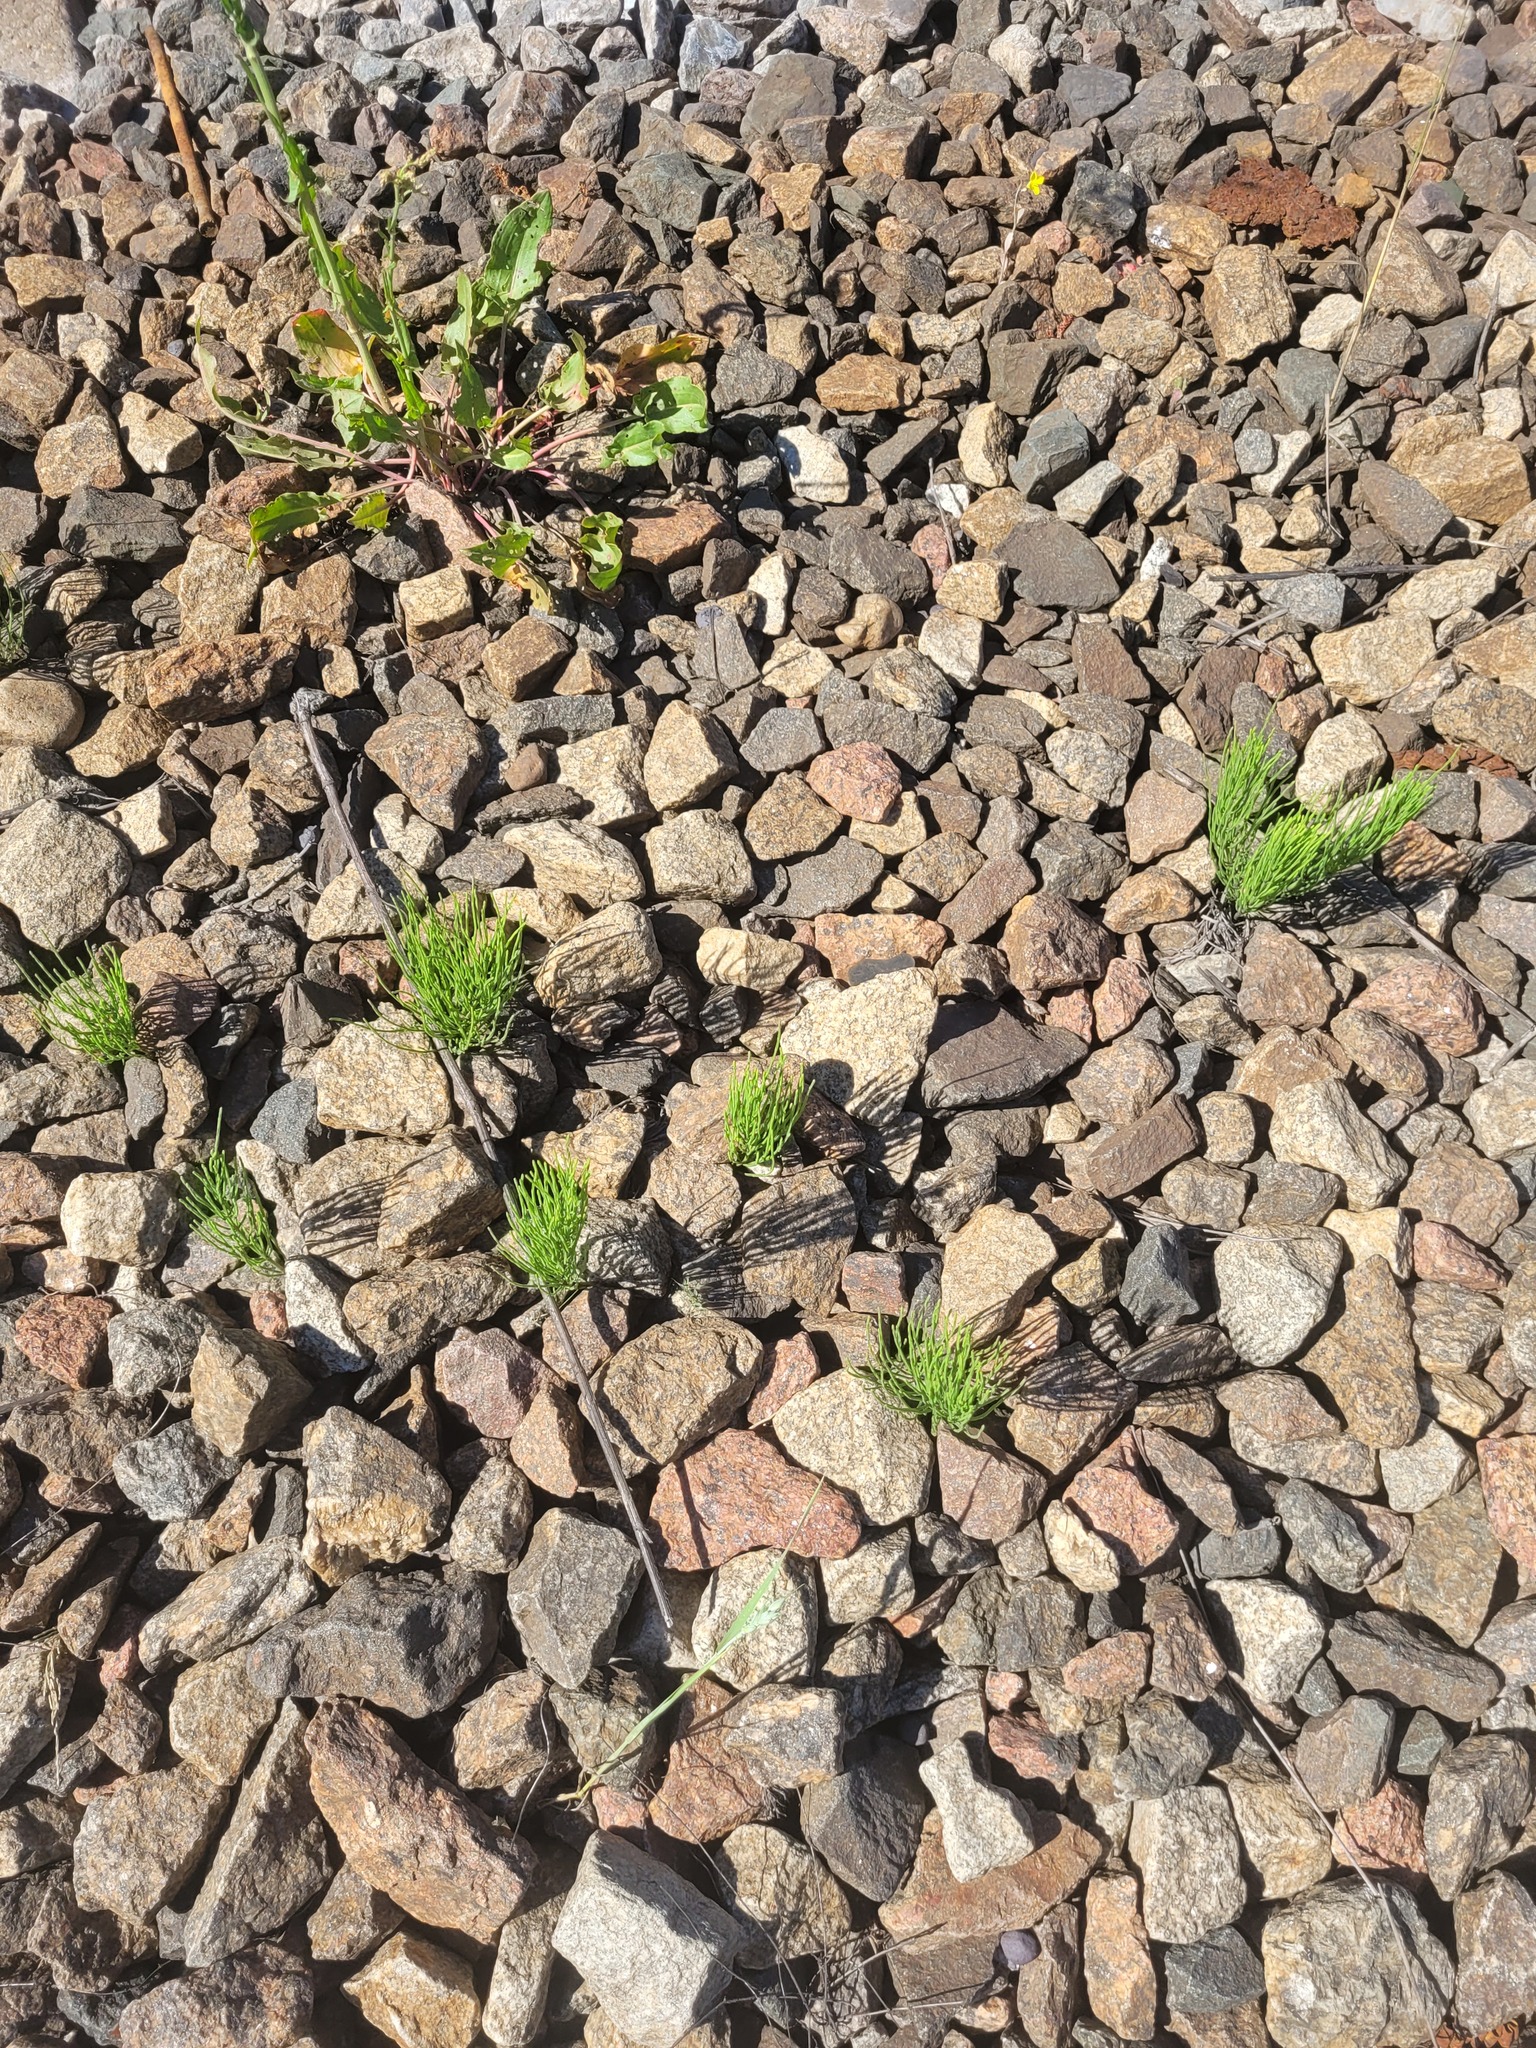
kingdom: Plantae
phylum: Tracheophyta
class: Polypodiopsida
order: Equisetales
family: Equisetaceae
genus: Equisetum
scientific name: Equisetum arvense
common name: Field horsetail
